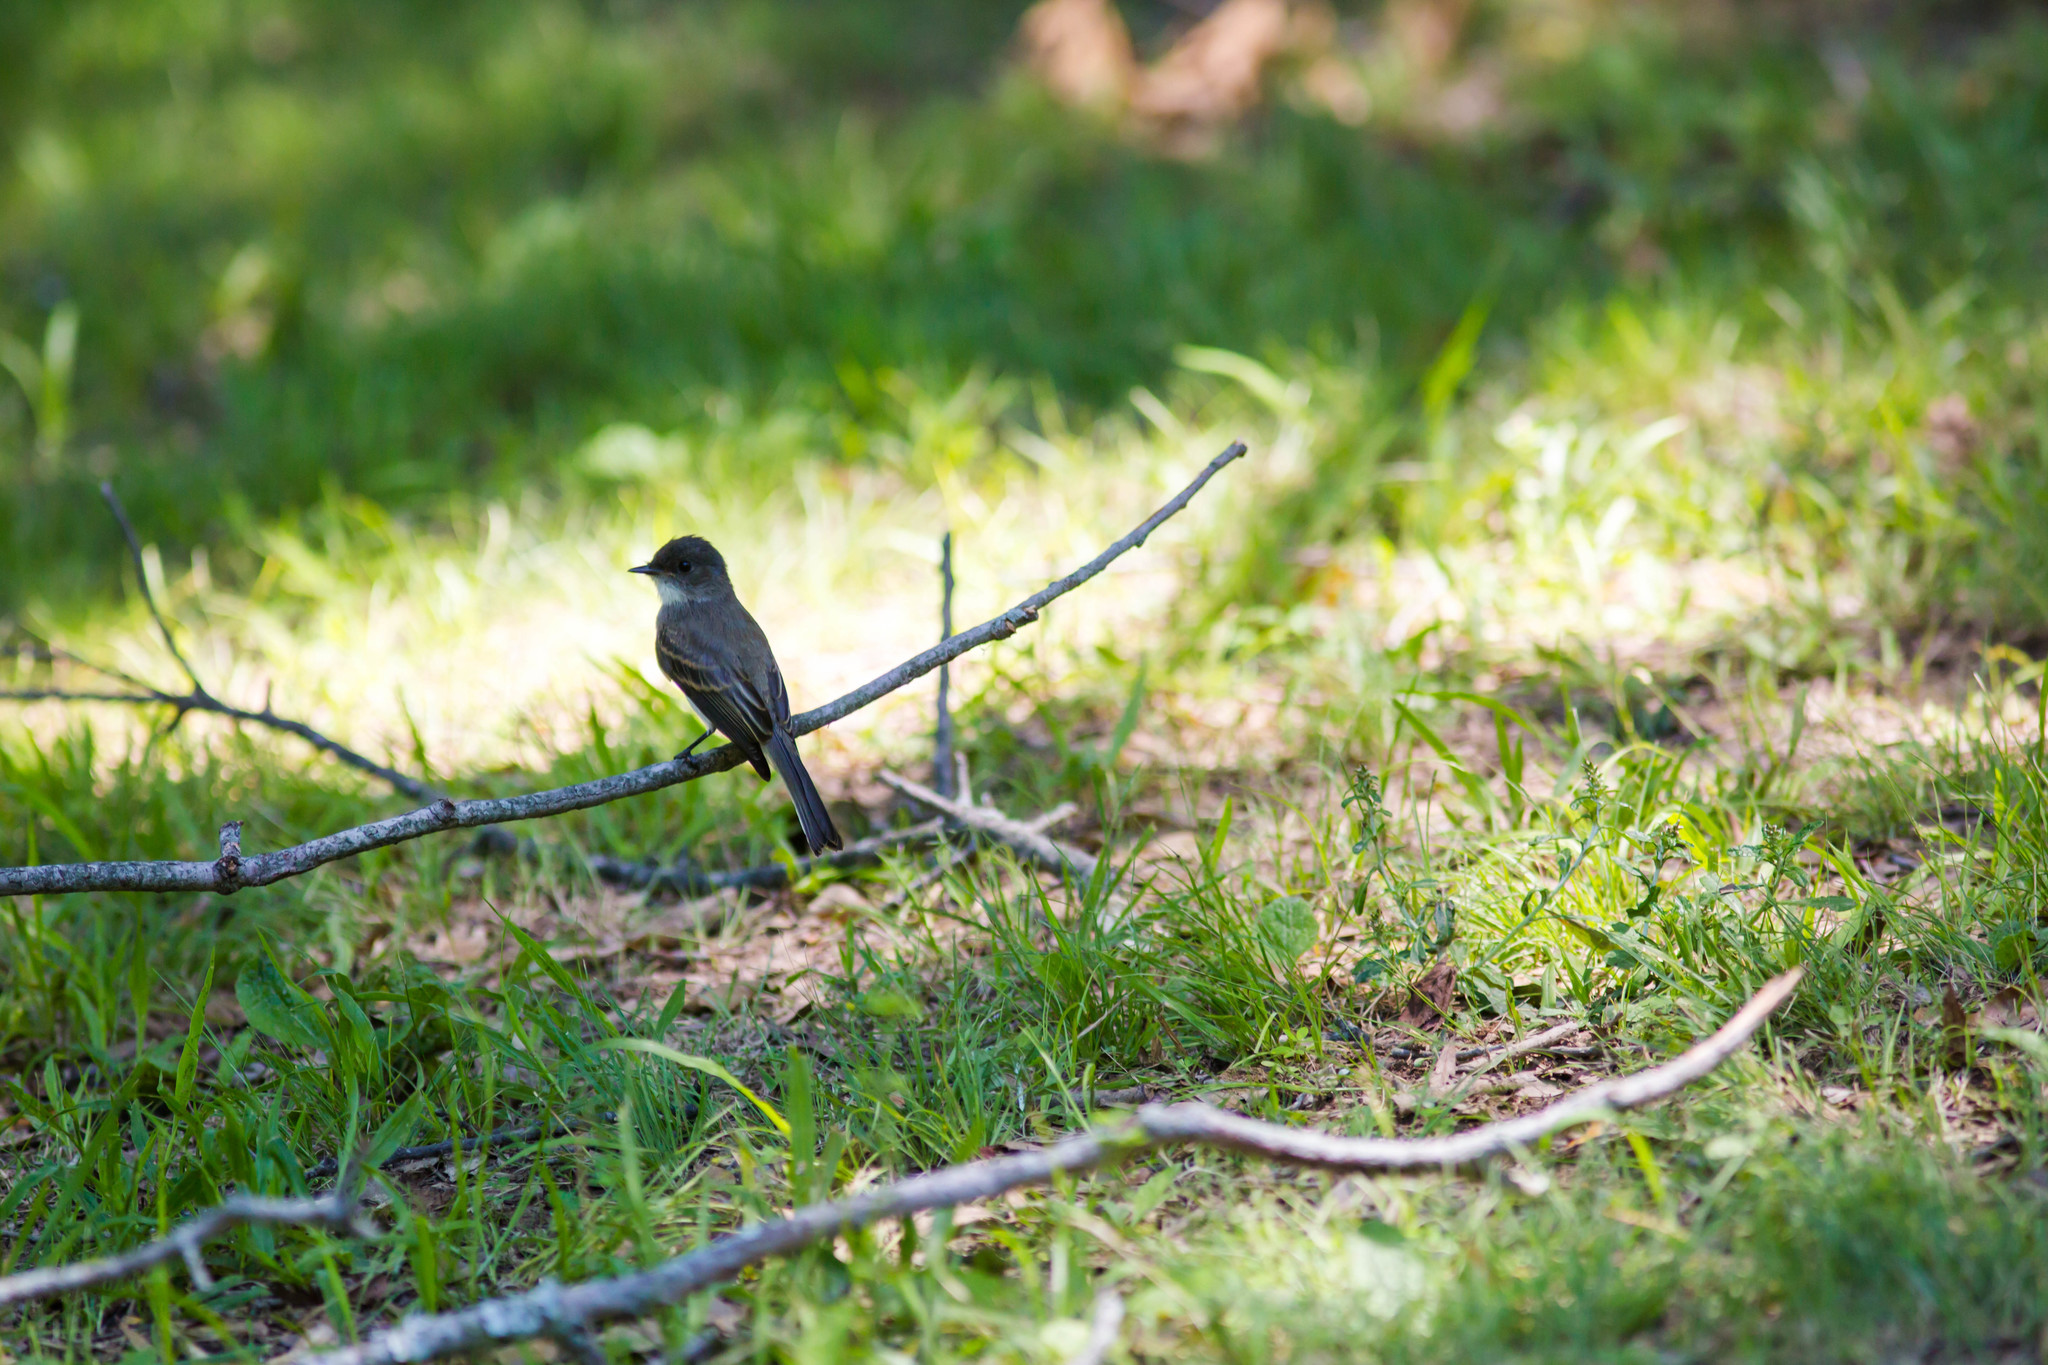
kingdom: Animalia
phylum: Chordata
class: Aves
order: Passeriformes
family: Tyrannidae
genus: Sayornis
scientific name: Sayornis phoebe
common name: Eastern phoebe
